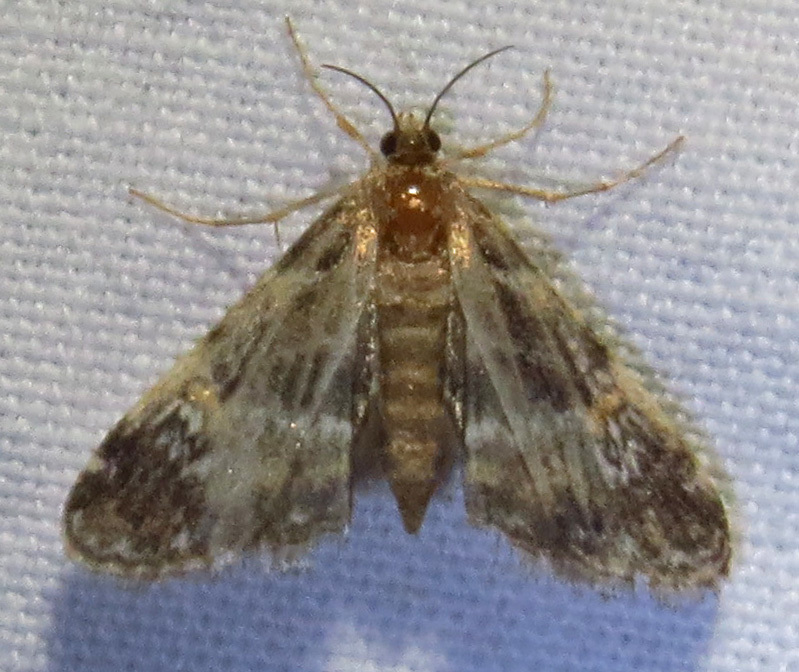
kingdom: Animalia
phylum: Arthropoda
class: Insecta
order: Lepidoptera
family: Crambidae
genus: Elophila
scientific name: Elophila obliteralis
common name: Waterlily leafcutter moth
